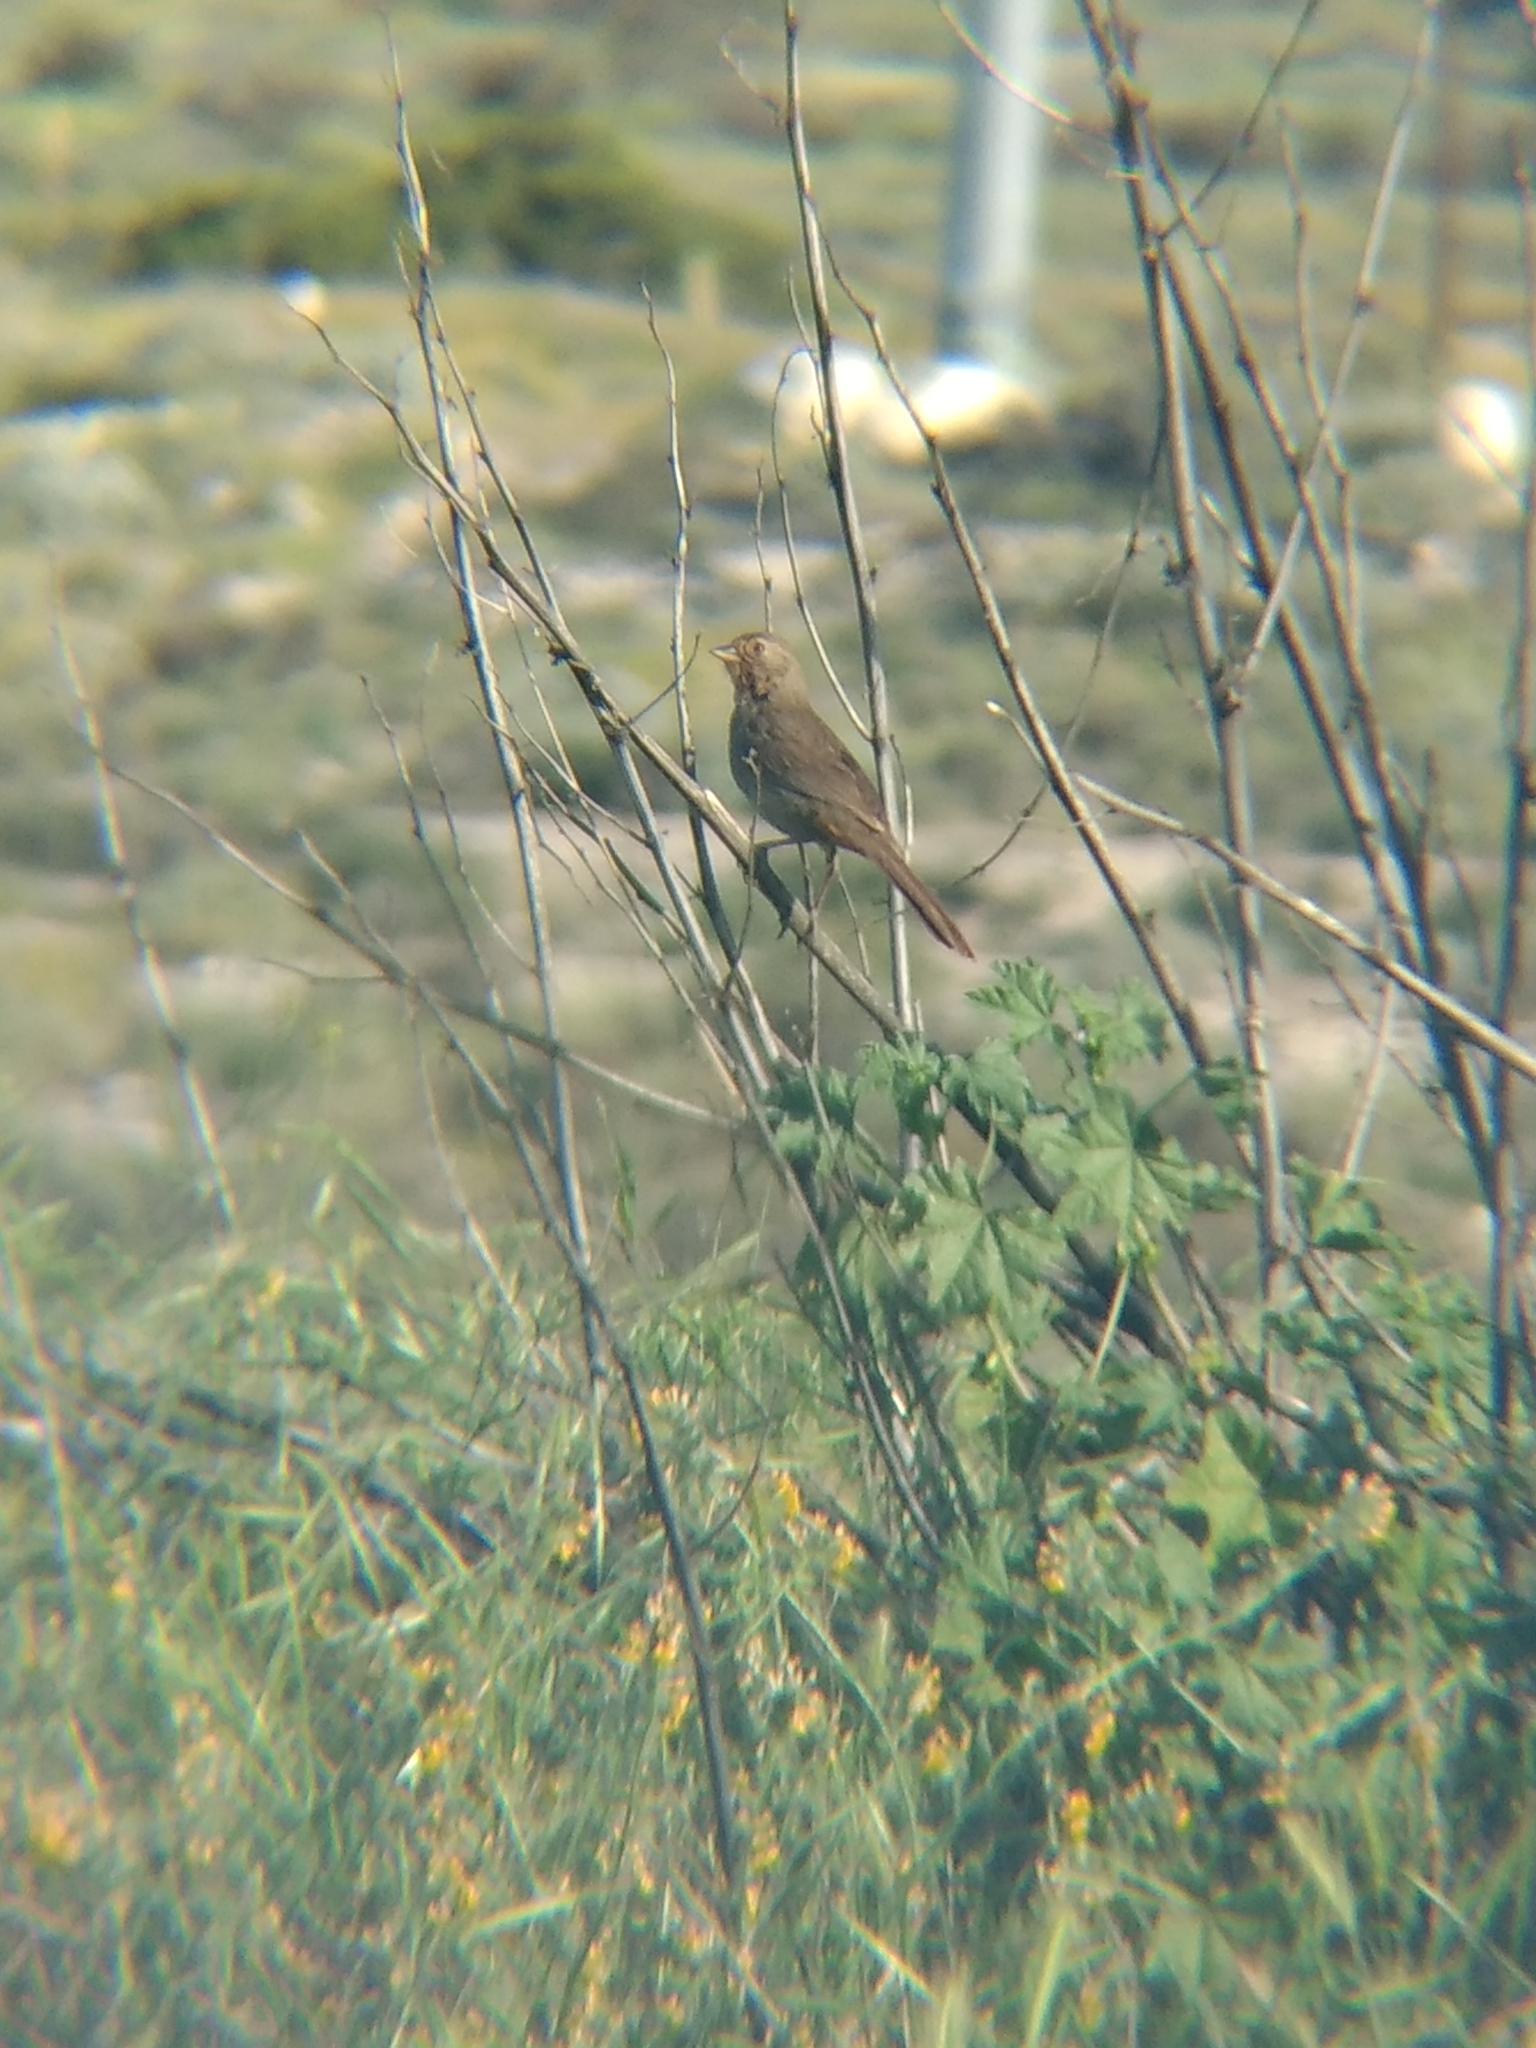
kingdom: Animalia
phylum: Chordata
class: Aves
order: Passeriformes
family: Passerellidae
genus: Melozone
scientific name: Melozone crissalis
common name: California towhee
